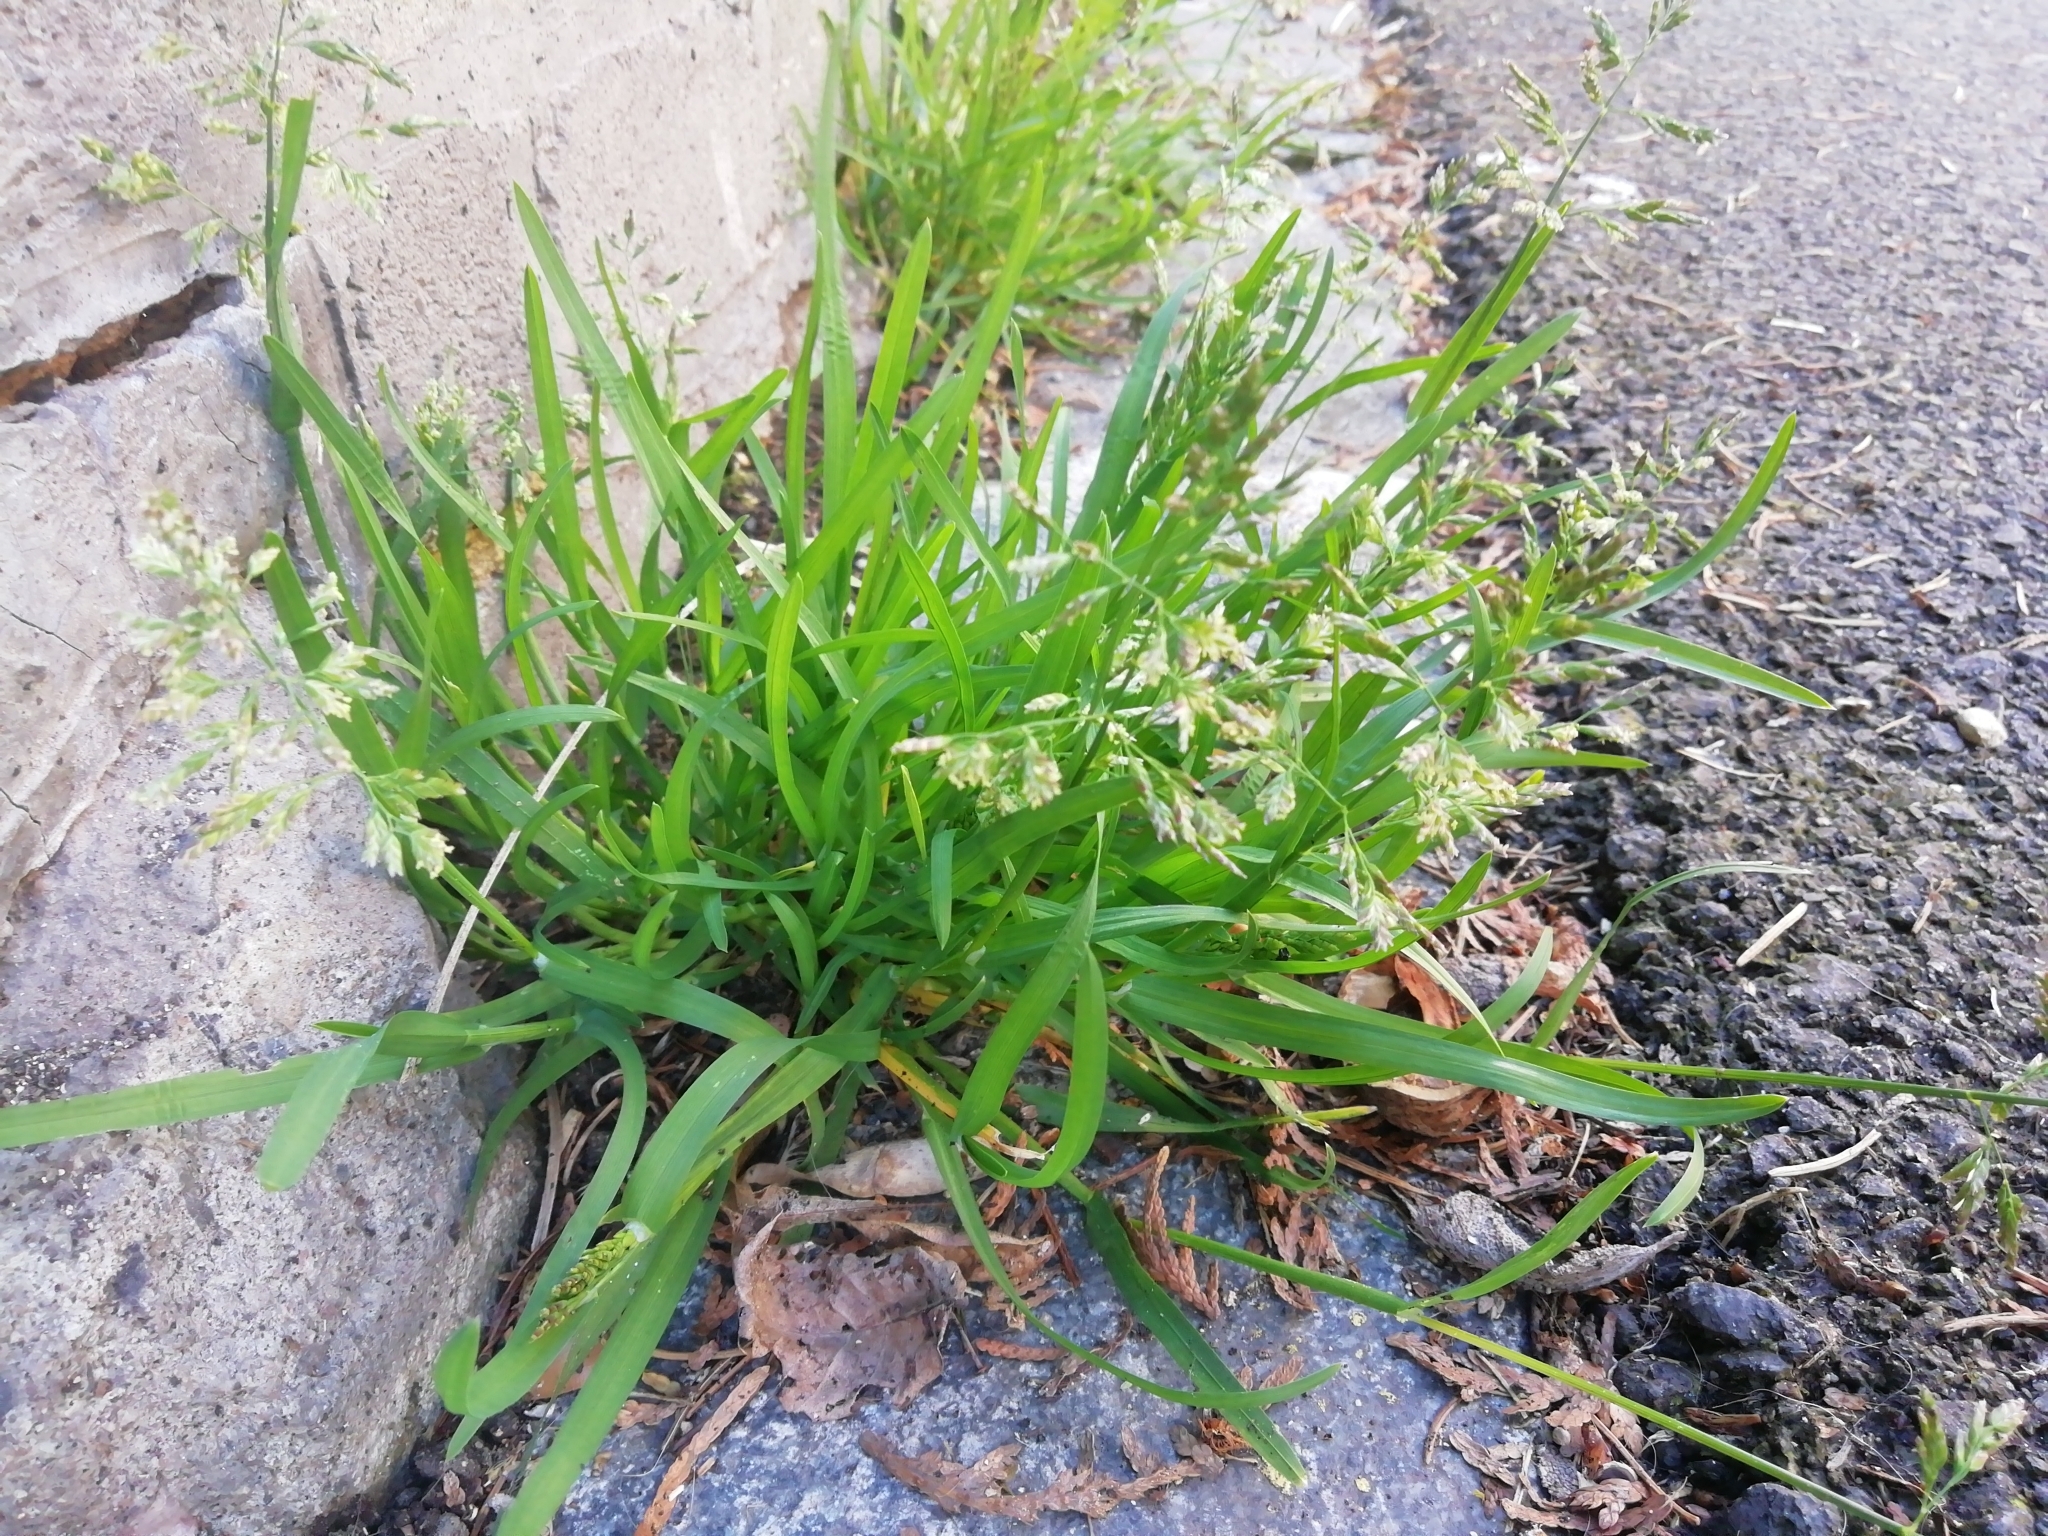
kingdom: Plantae
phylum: Tracheophyta
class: Liliopsida
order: Poales
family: Poaceae
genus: Poa
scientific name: Poa annua
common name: Annual bluegrass
